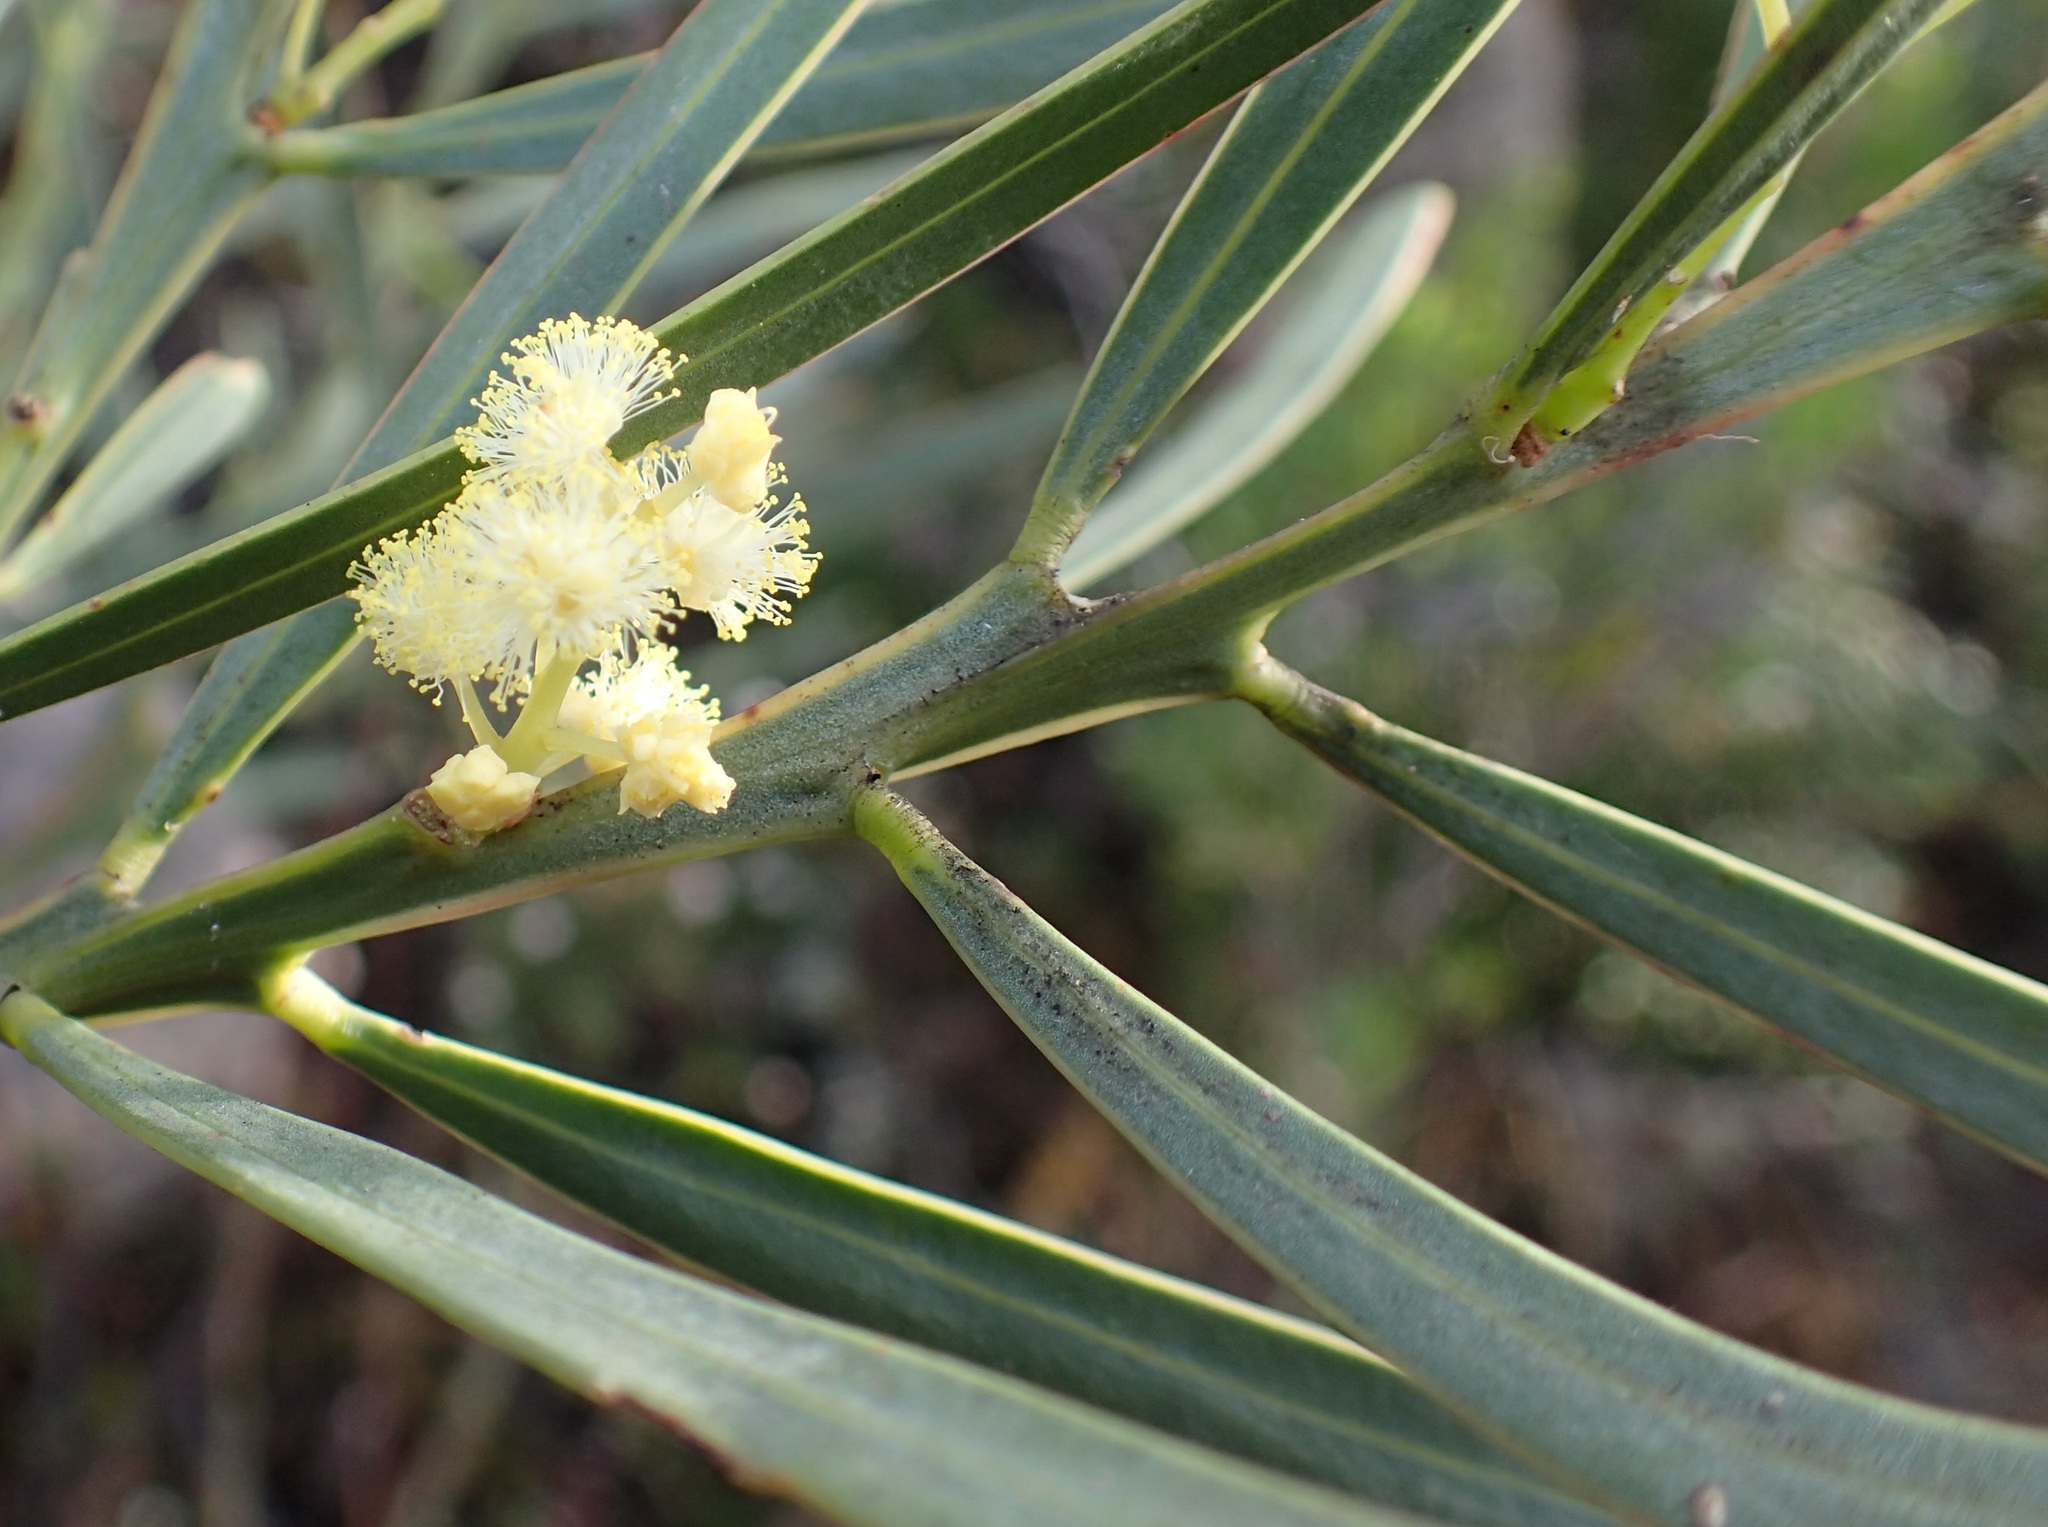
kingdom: Plantae
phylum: Tracheophyta
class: Magnoliopsida
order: Fabales
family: Fabaceae
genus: Acacia
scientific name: Acacia suaveolens
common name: Sweet acacia
